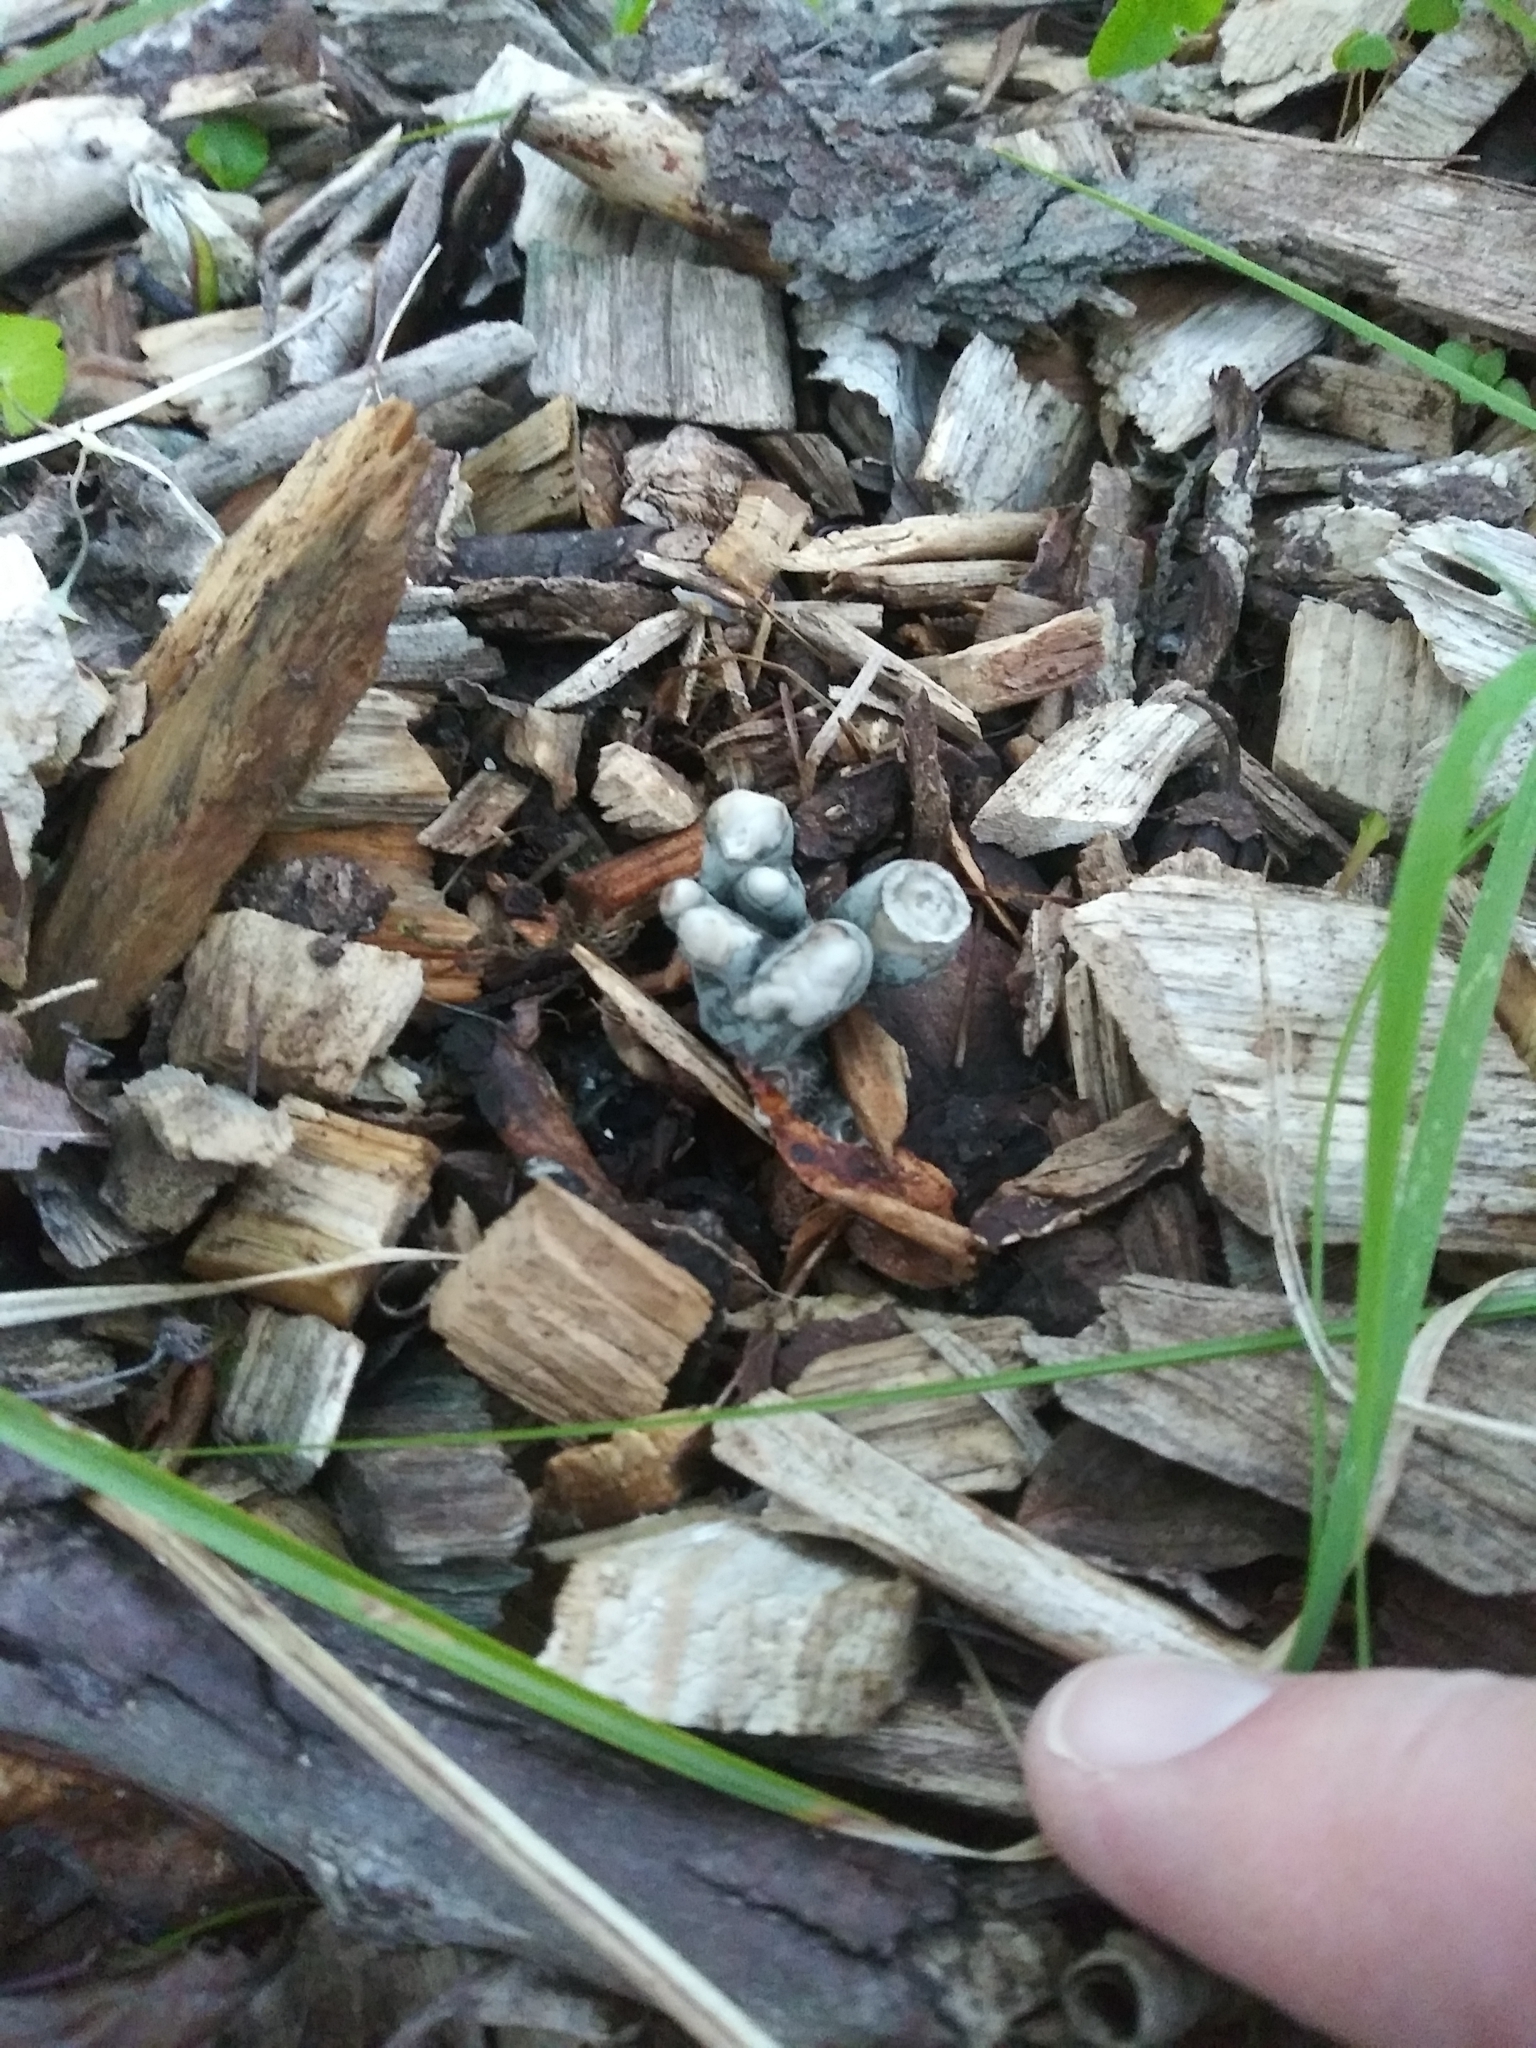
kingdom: Fungi
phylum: Ascomycota
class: Sordariomycetes
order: Xylariales
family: Xylariaceae
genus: Xylaria
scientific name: Xylaria polymorpha
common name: Dead man's fingers
